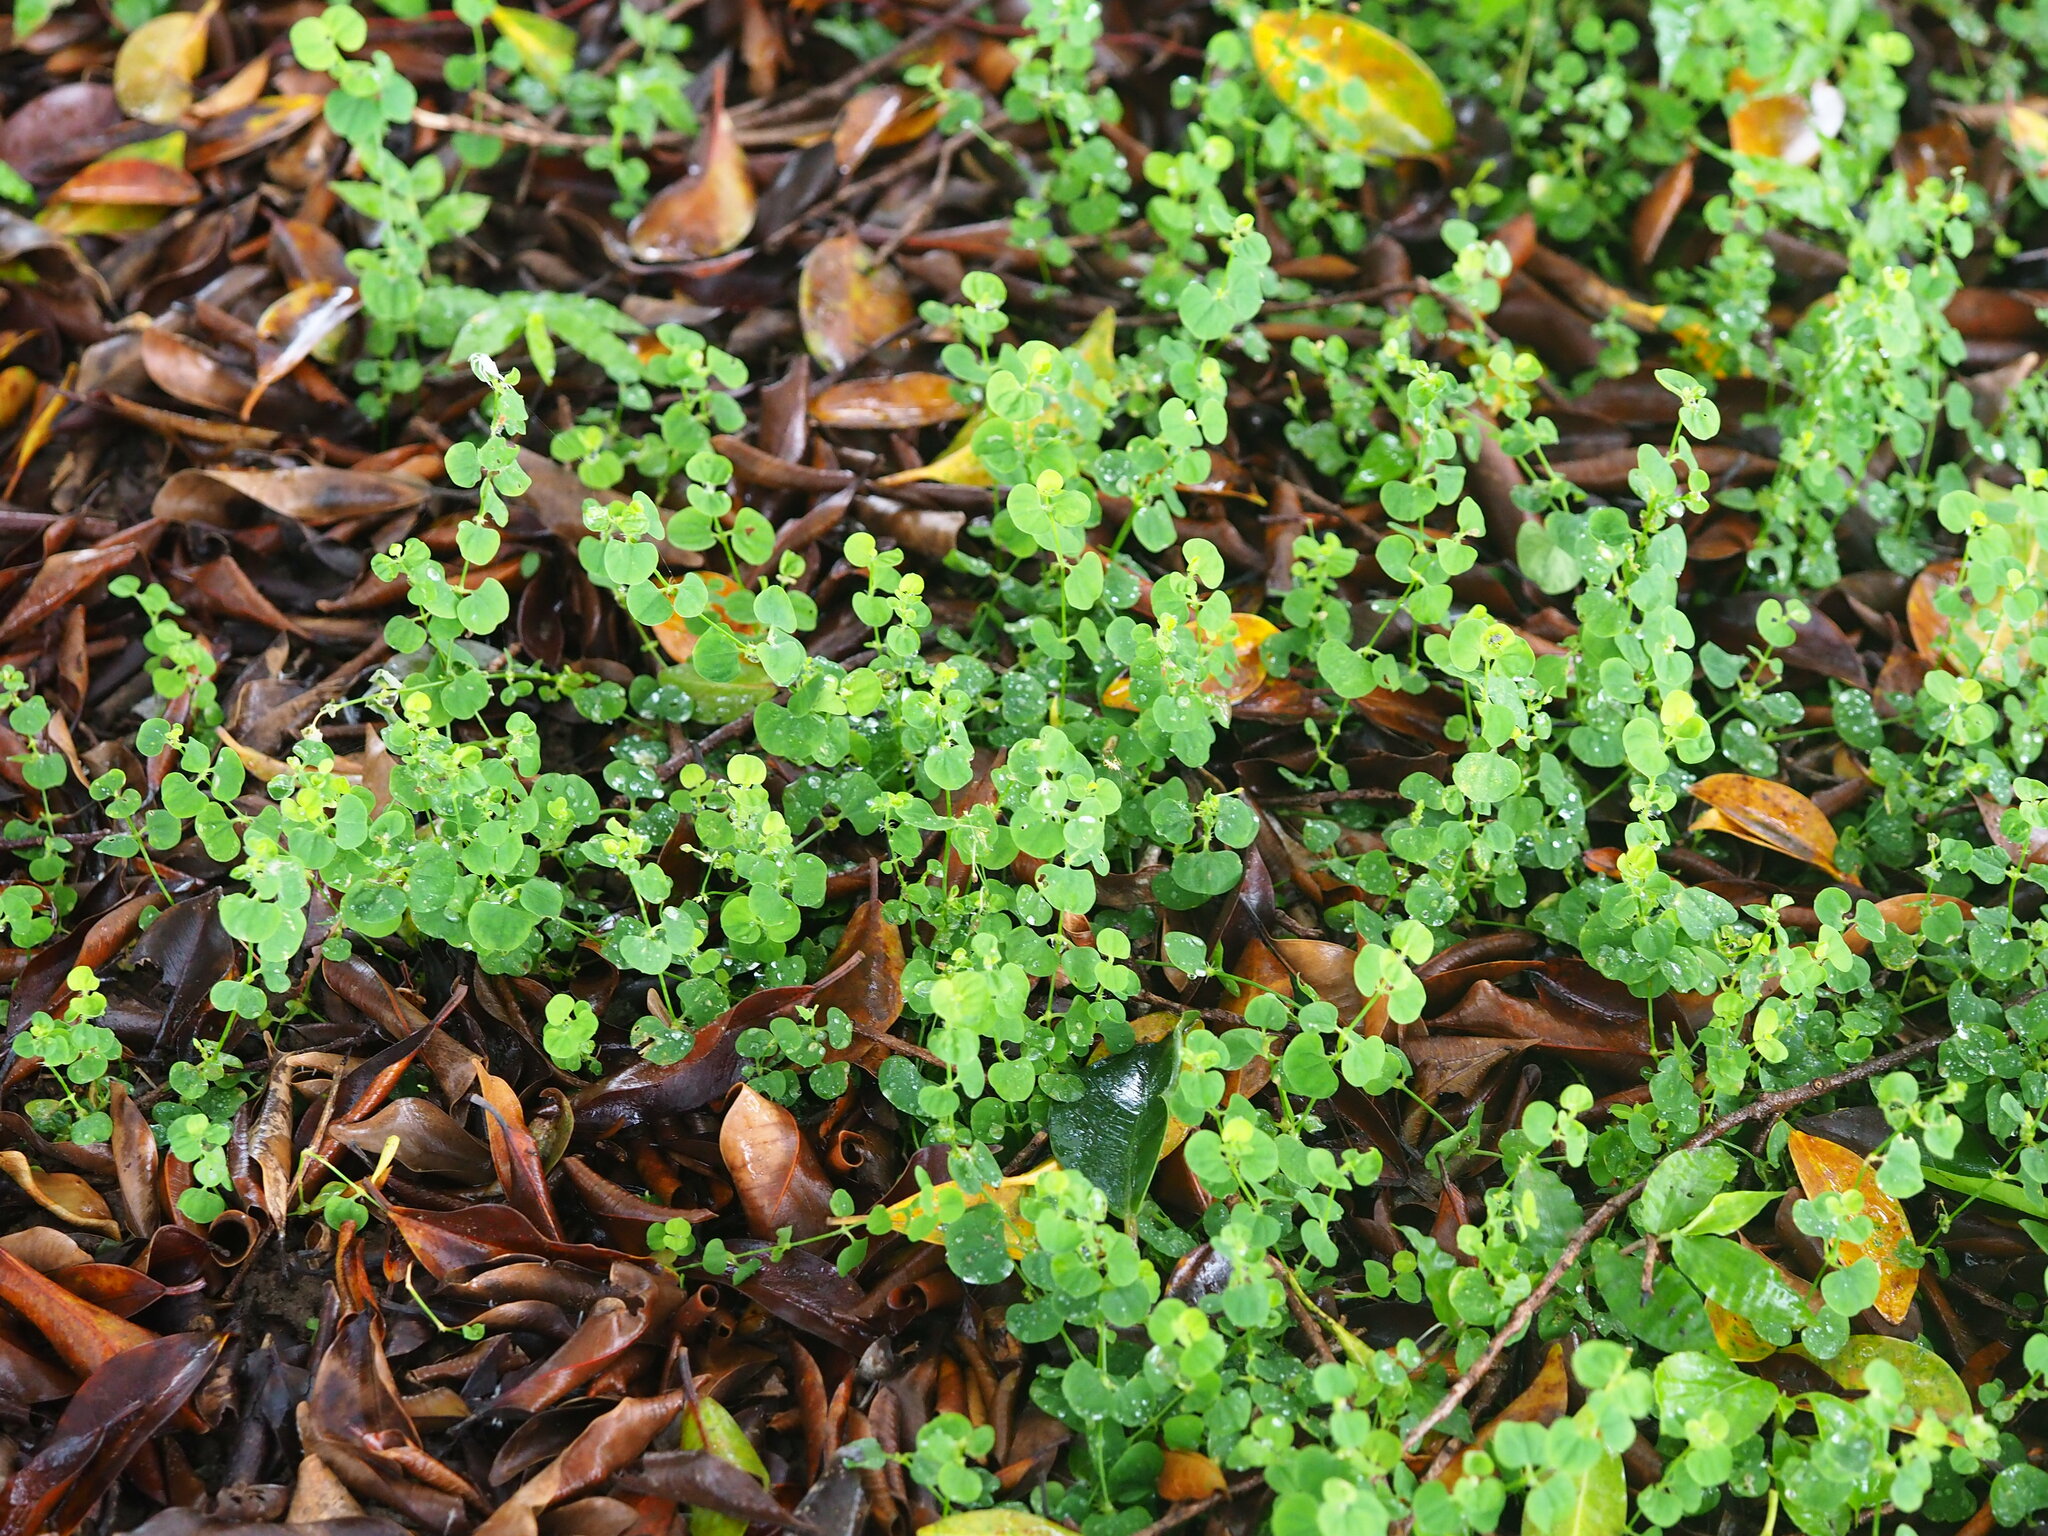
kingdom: Plantae
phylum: Tracheophyta
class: Magnoliopsida
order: Caryophyllales
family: Caryophyllaceae
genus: Drymaria
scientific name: Drymaria cordata
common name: Whitesnow
